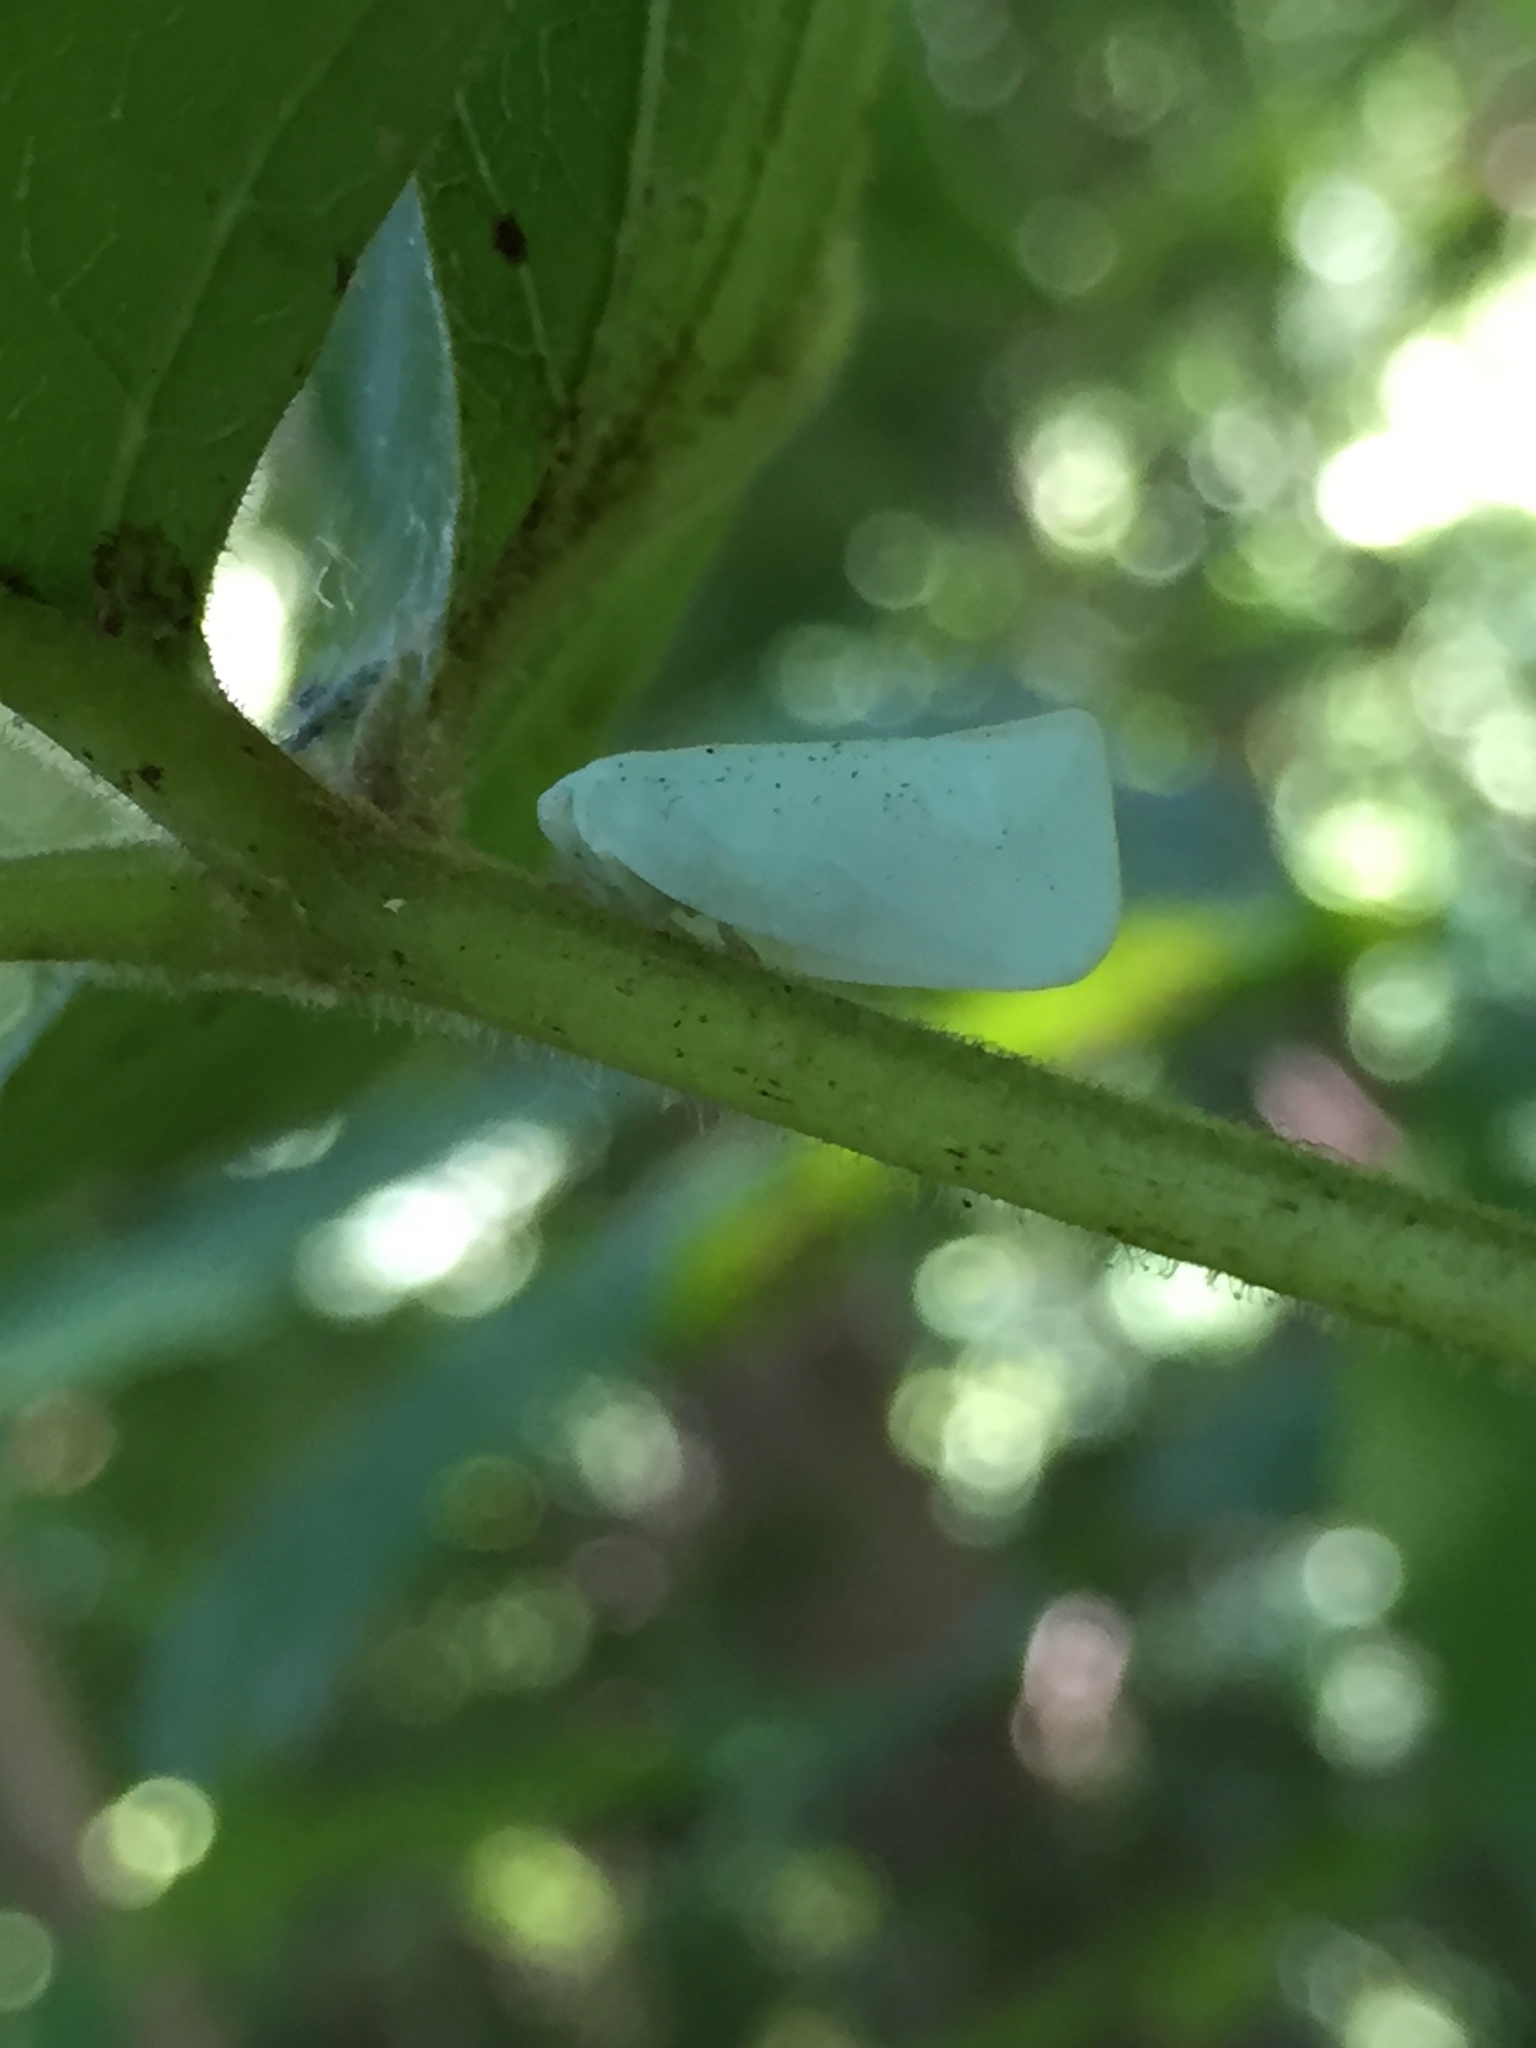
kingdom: Animalia
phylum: Arthropoda
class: Insecta
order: Hemiptera
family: Flatidae
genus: Flatormenis
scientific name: Flatormenis proxima
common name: Northern flatid planthopper
